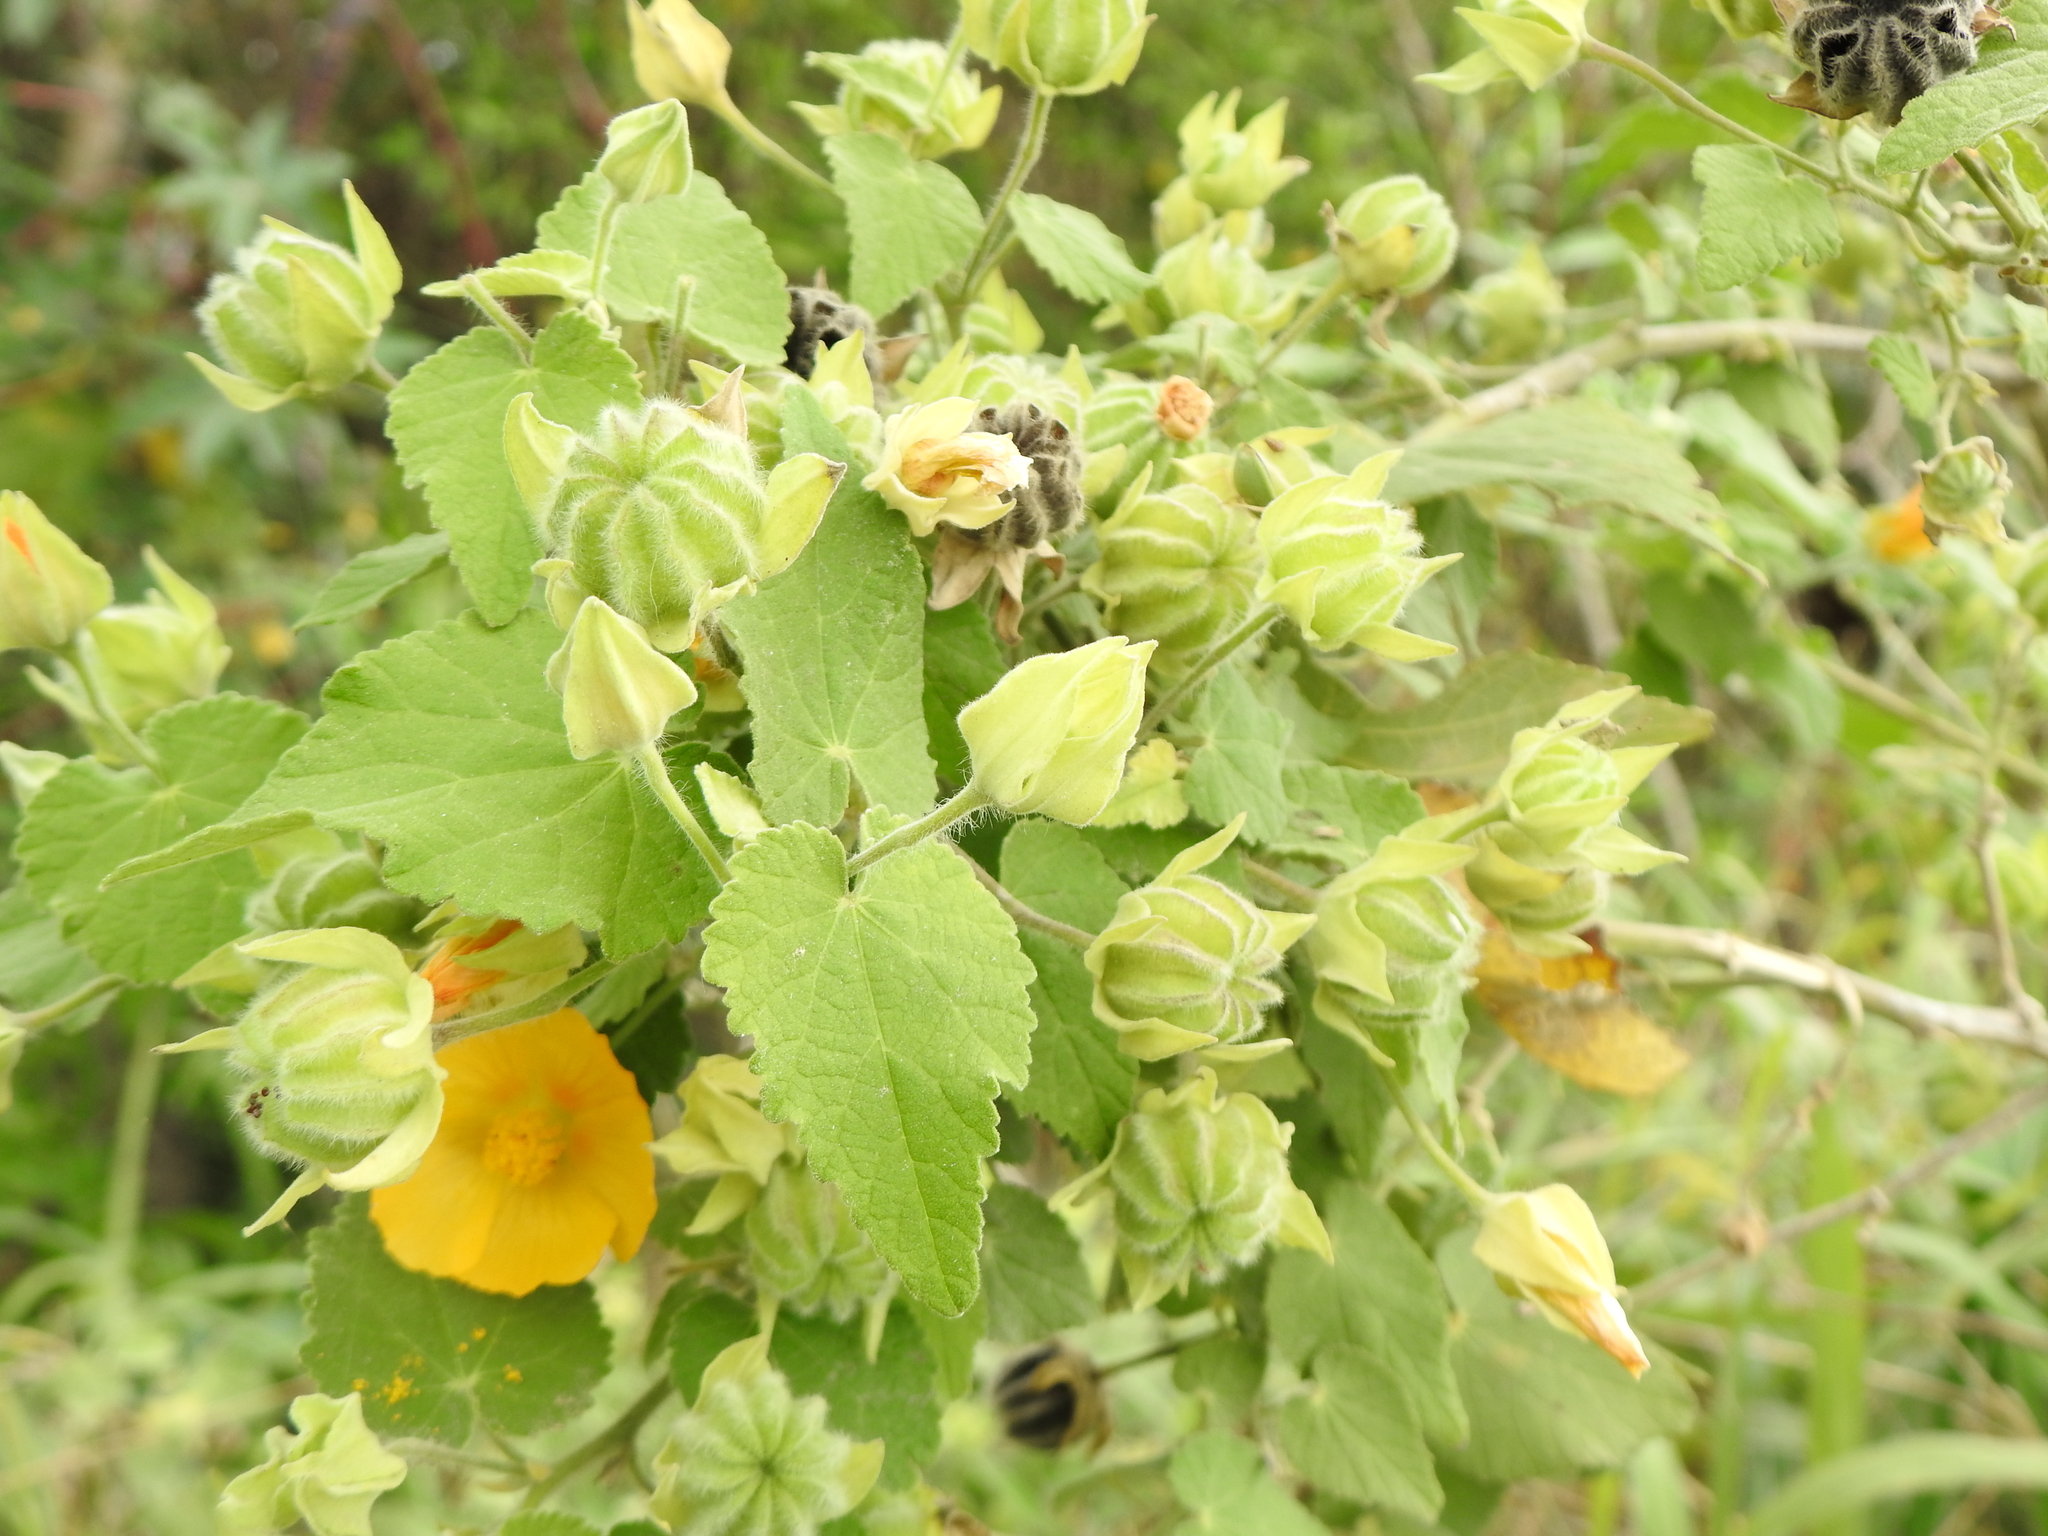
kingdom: Plantae
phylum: Tracheophyta
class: Magnoliopsida
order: Malvales
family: Malvaceae
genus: Abutilon
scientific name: Abutilon grandifolium
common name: Hairy abutilon
